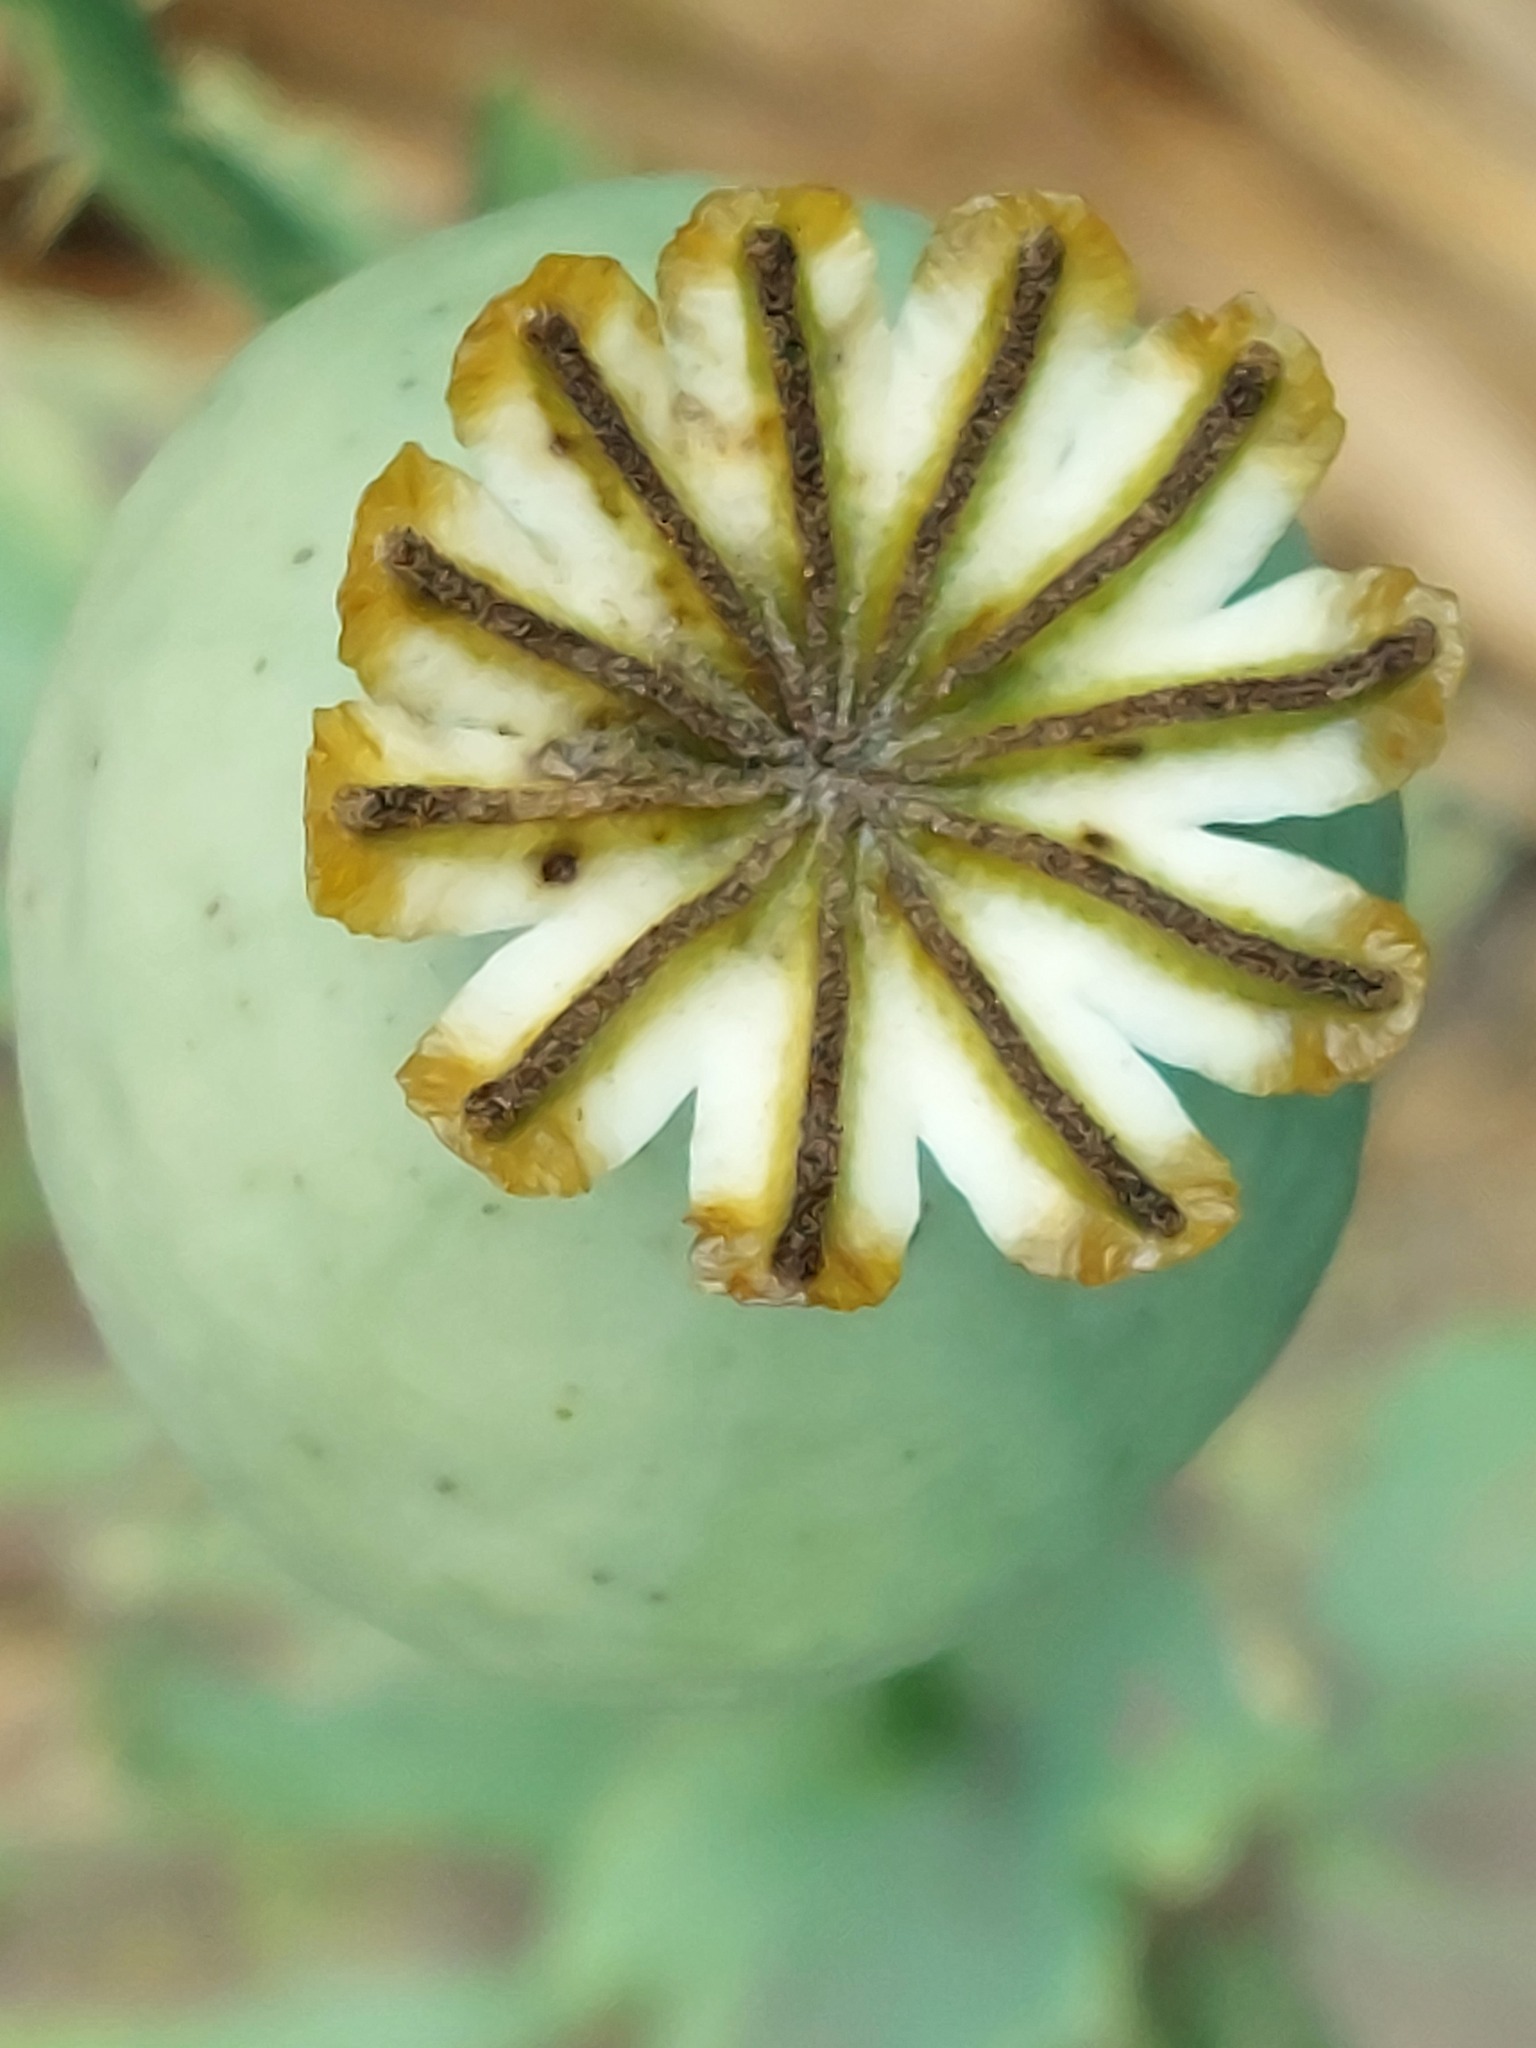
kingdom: Plantae
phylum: Tracheophyta
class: Magnoliopsida
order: Ranunculales
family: Papaveraceae
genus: Papaver
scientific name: Papaver somniferum
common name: Opium poppy
